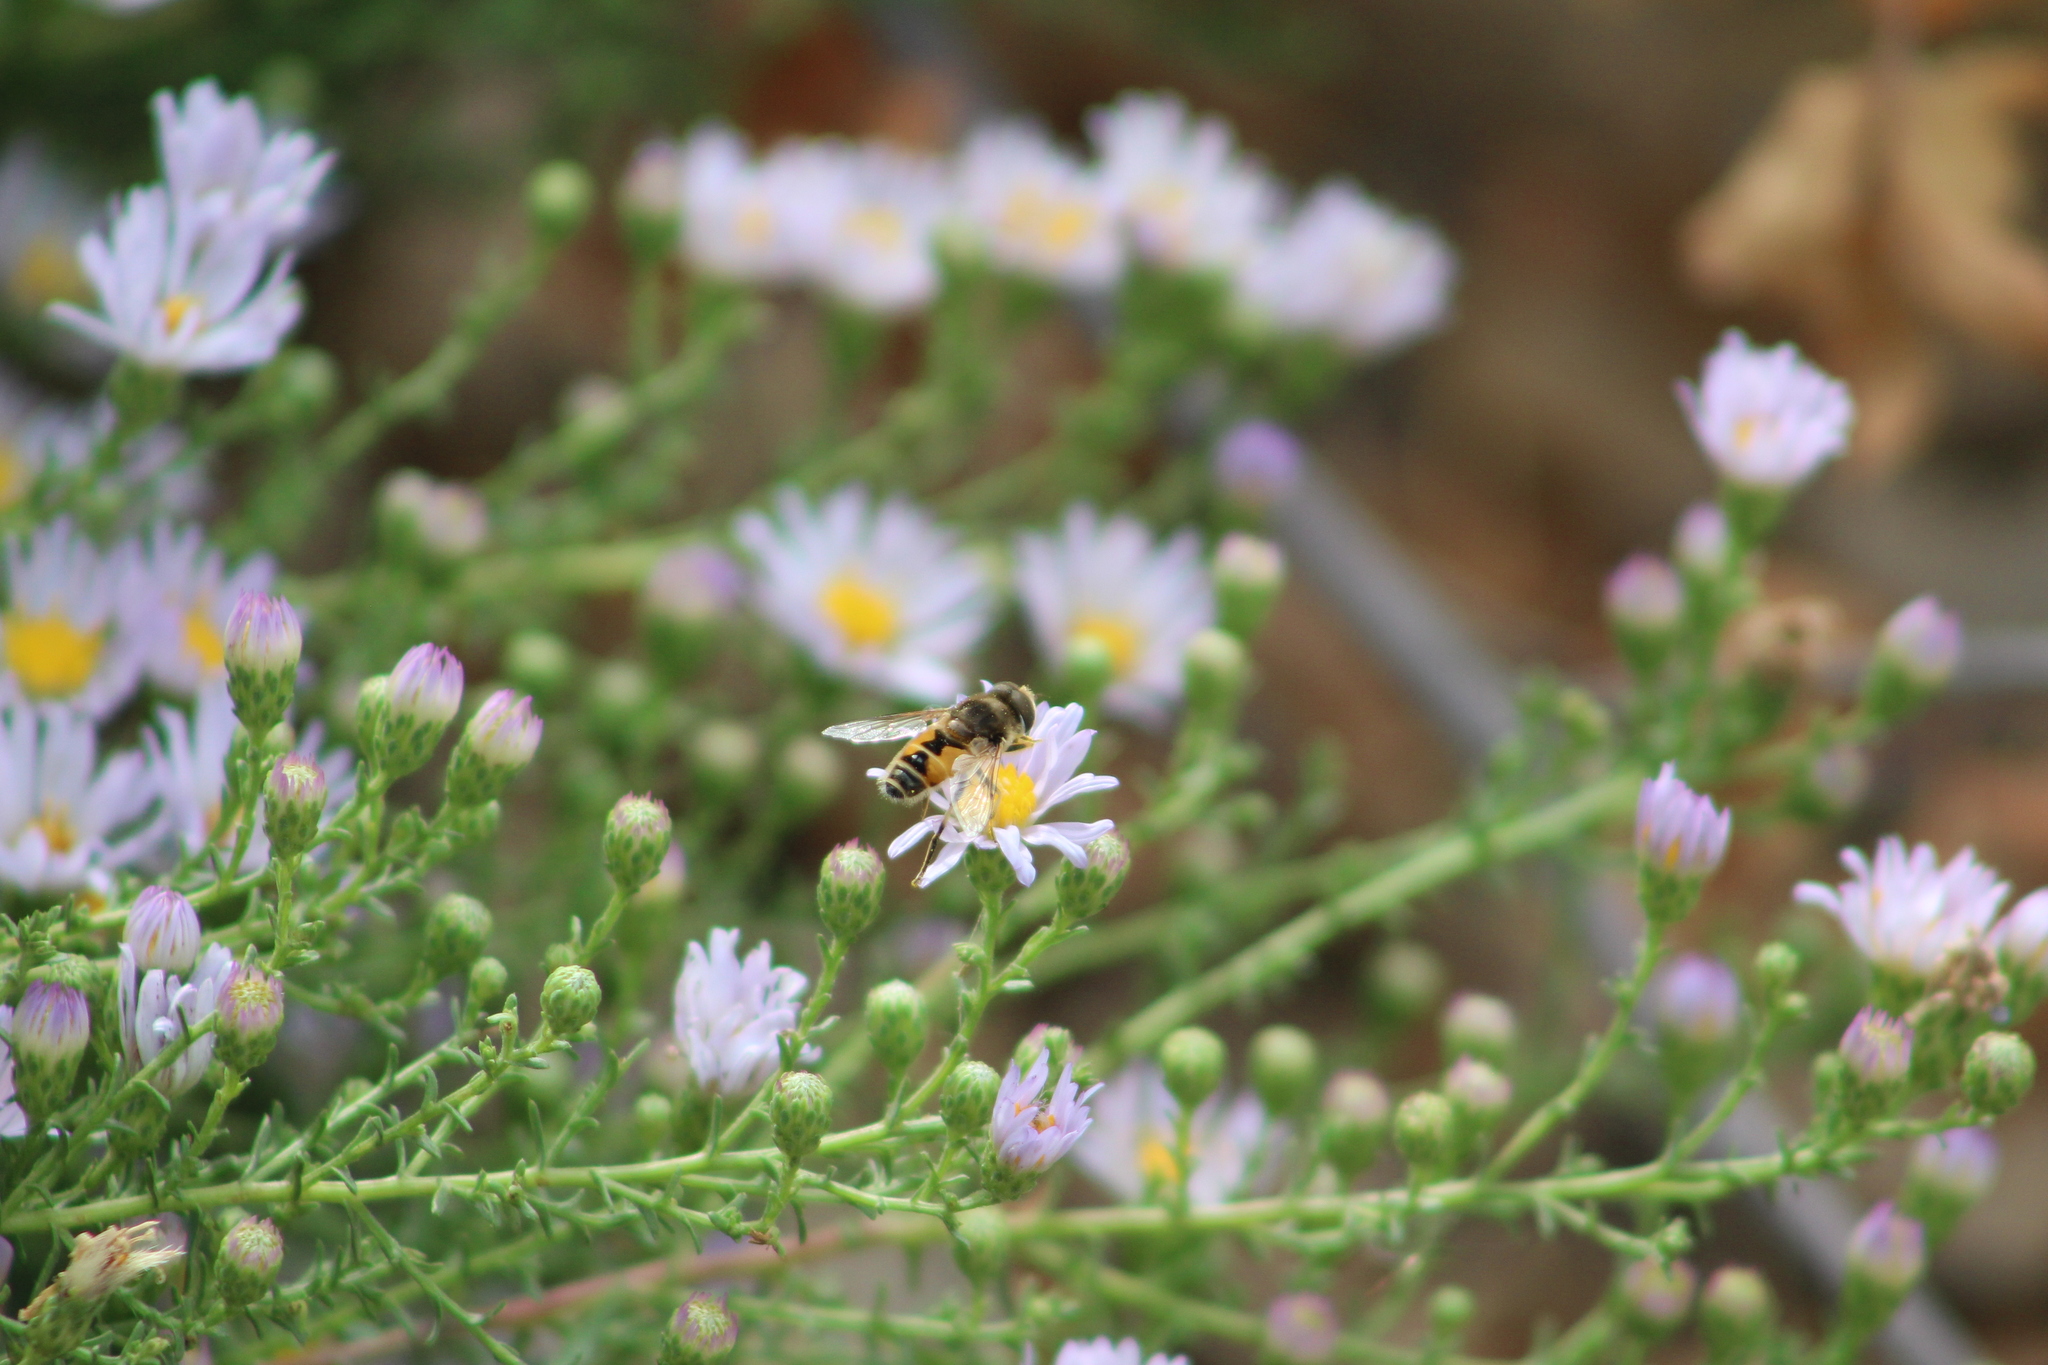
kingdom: Animalia
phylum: Arthropoda
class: Insecta
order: Diptera
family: Syrphidae
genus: Eristalis
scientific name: Eristalis arbustorum
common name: Hover fly
